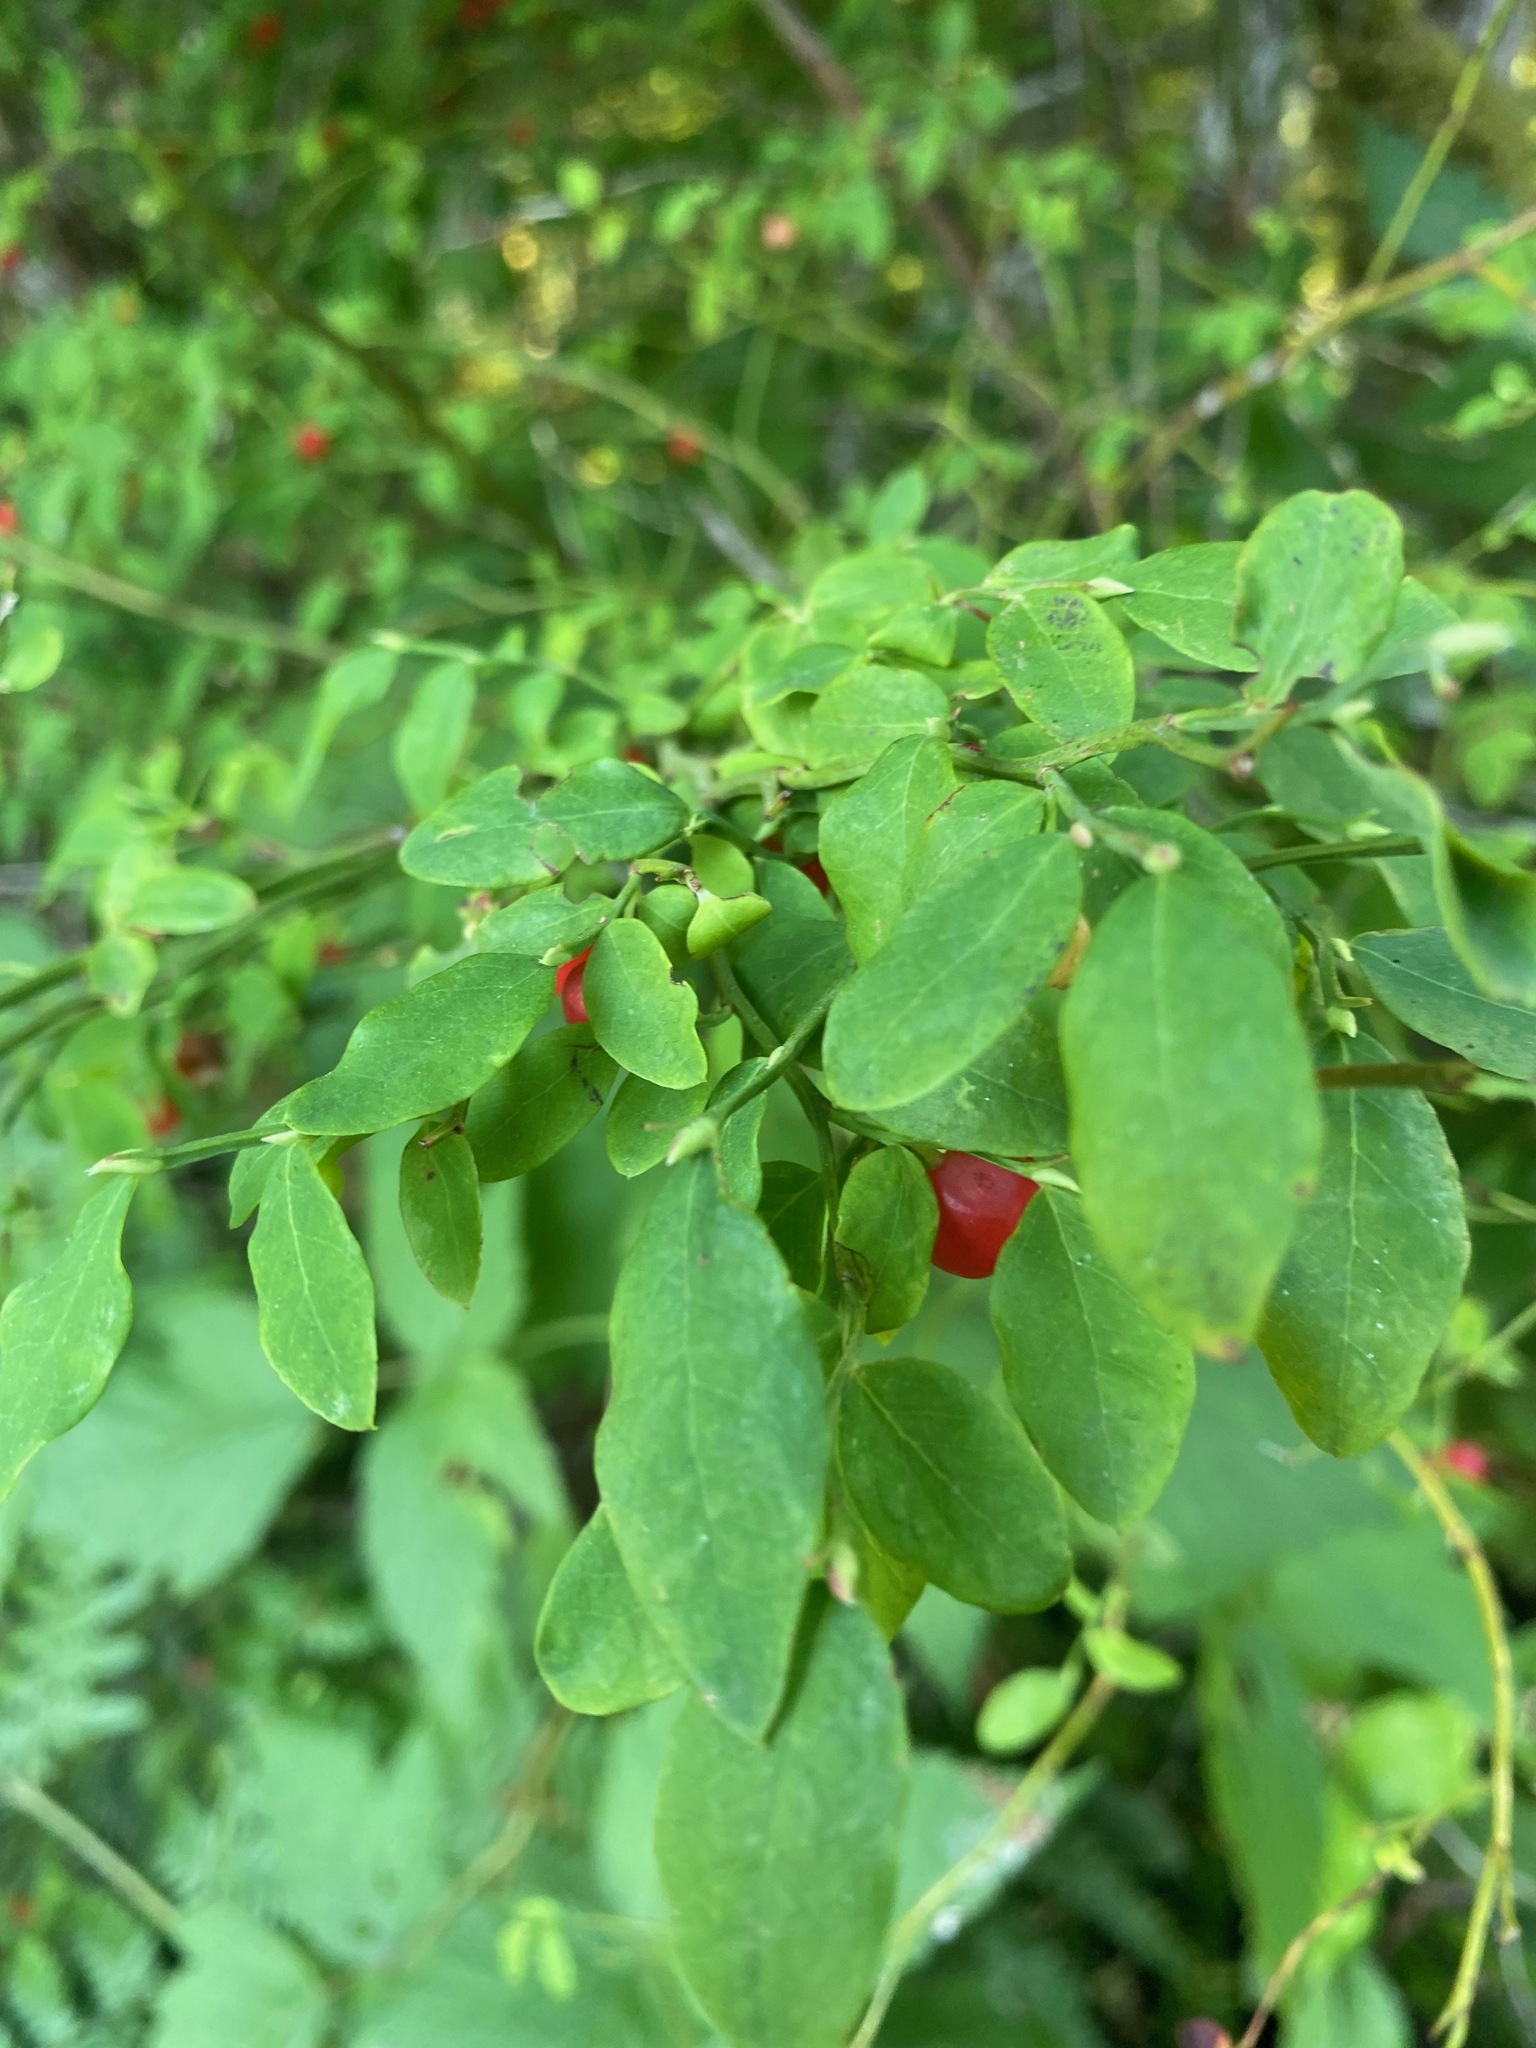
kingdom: Plantae
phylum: Tracheophyta
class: Magnoliopsida
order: Ericales
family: Ericaceae
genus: Vaccinium
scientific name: Vaccinium parvifolium
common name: Red-huckleberry
